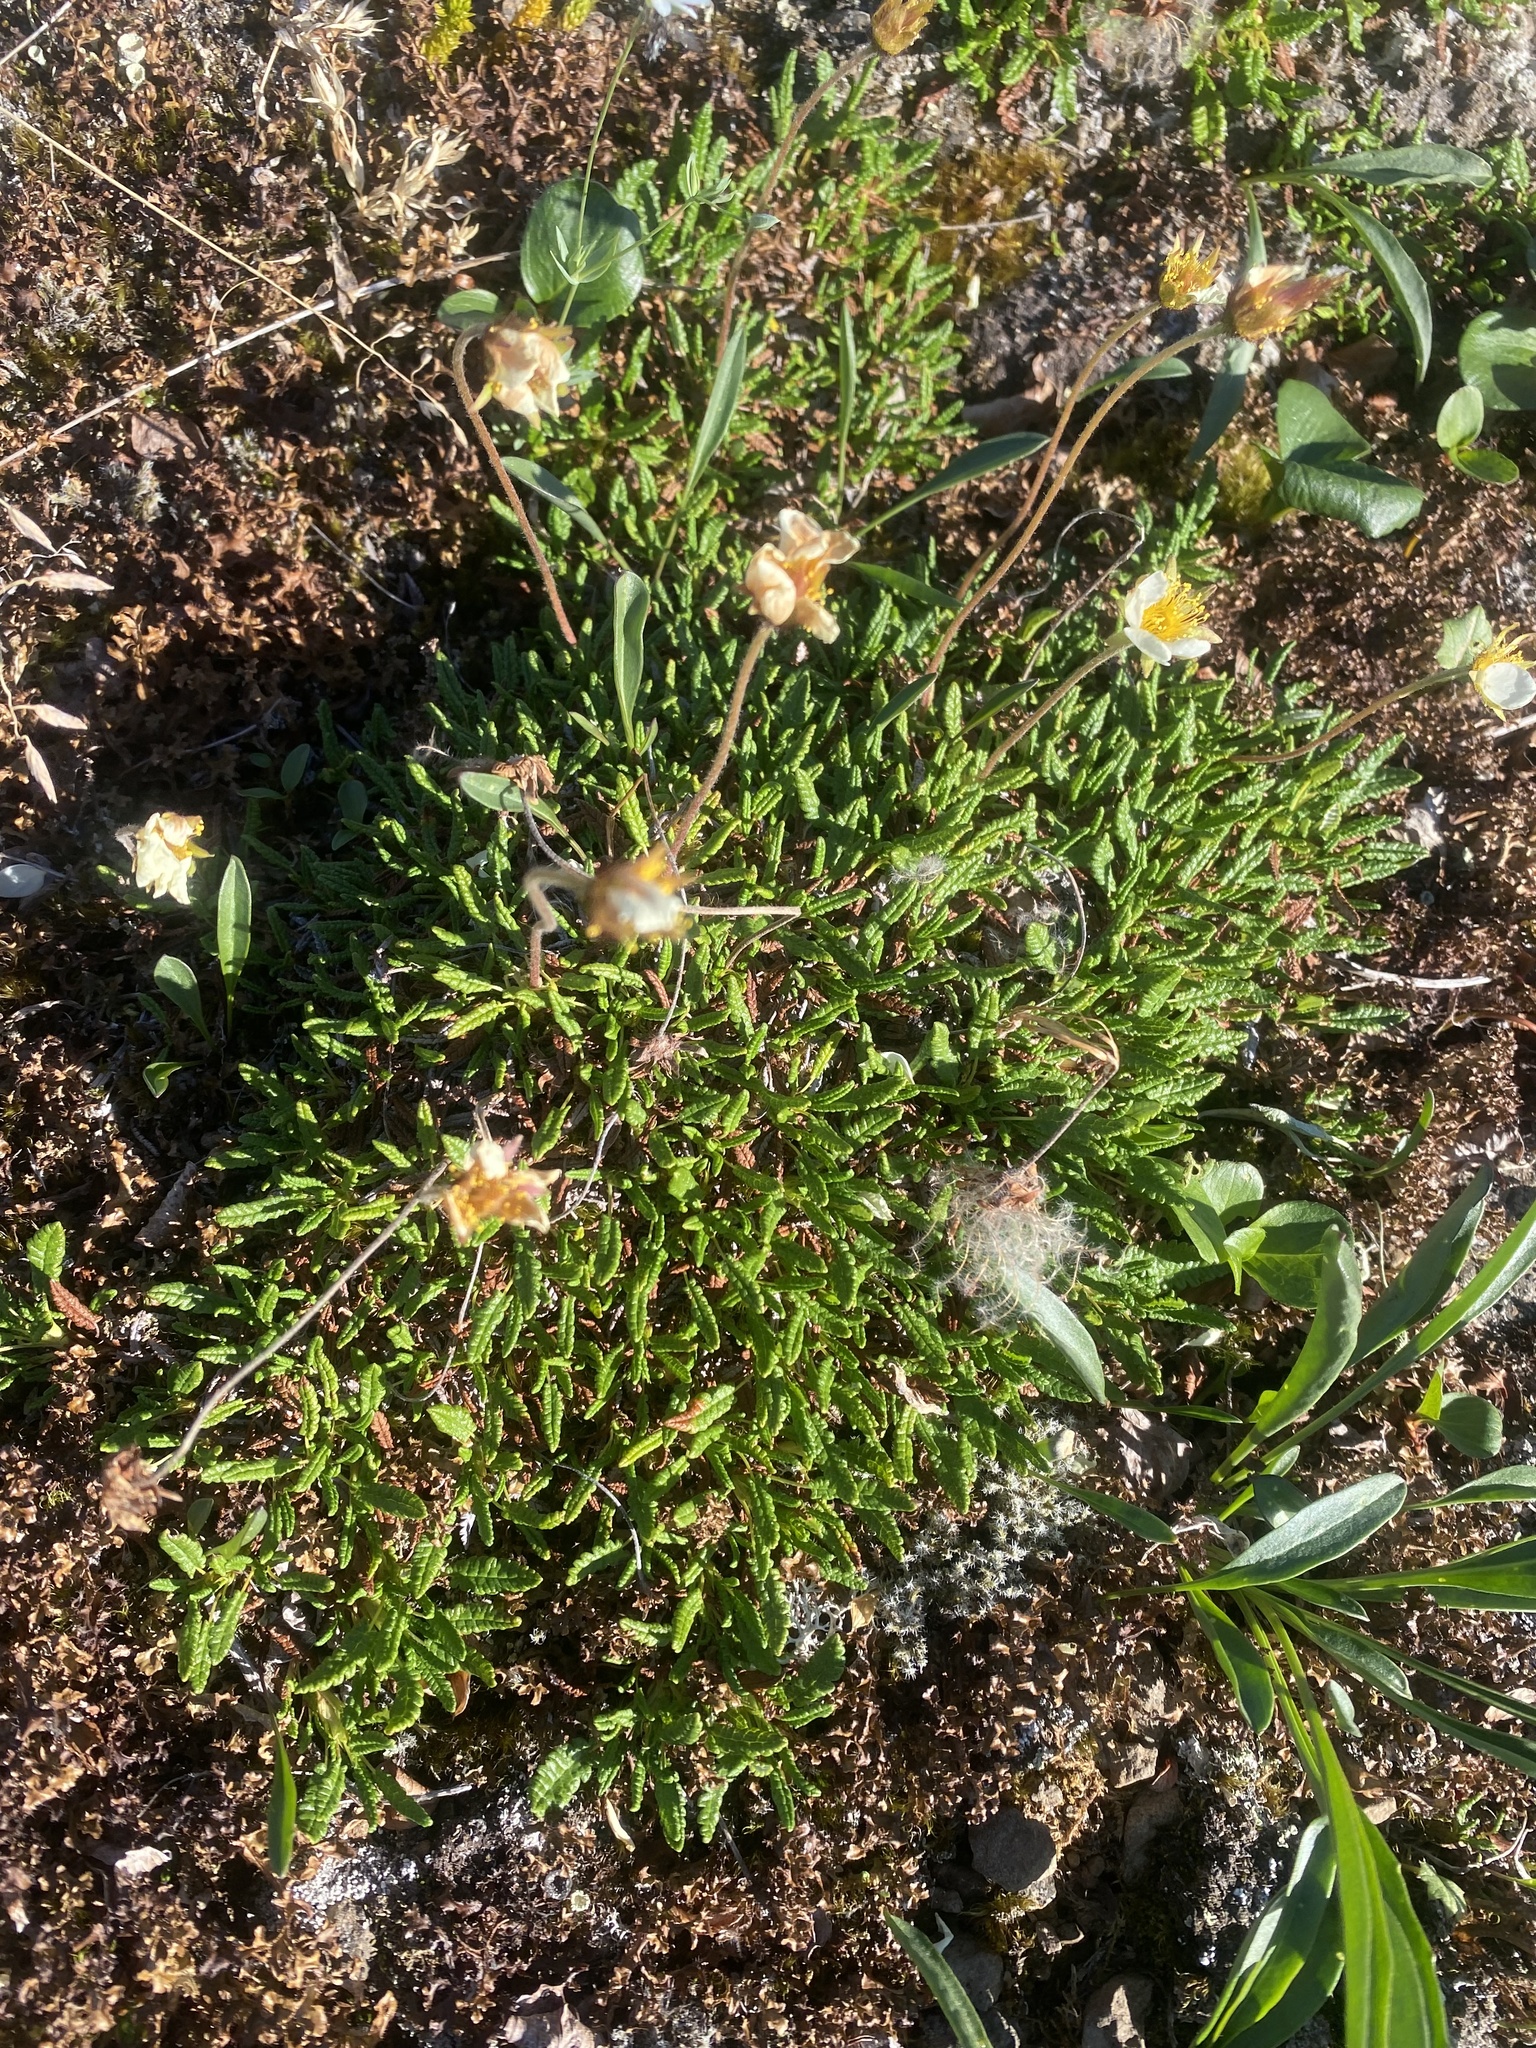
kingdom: Plantae
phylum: Tracheophyta
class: Magnoliopsida
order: Rosales
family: Rosaceae
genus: Dryas
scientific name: Dryas octopetala
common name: Eight-petal mountain-avens
